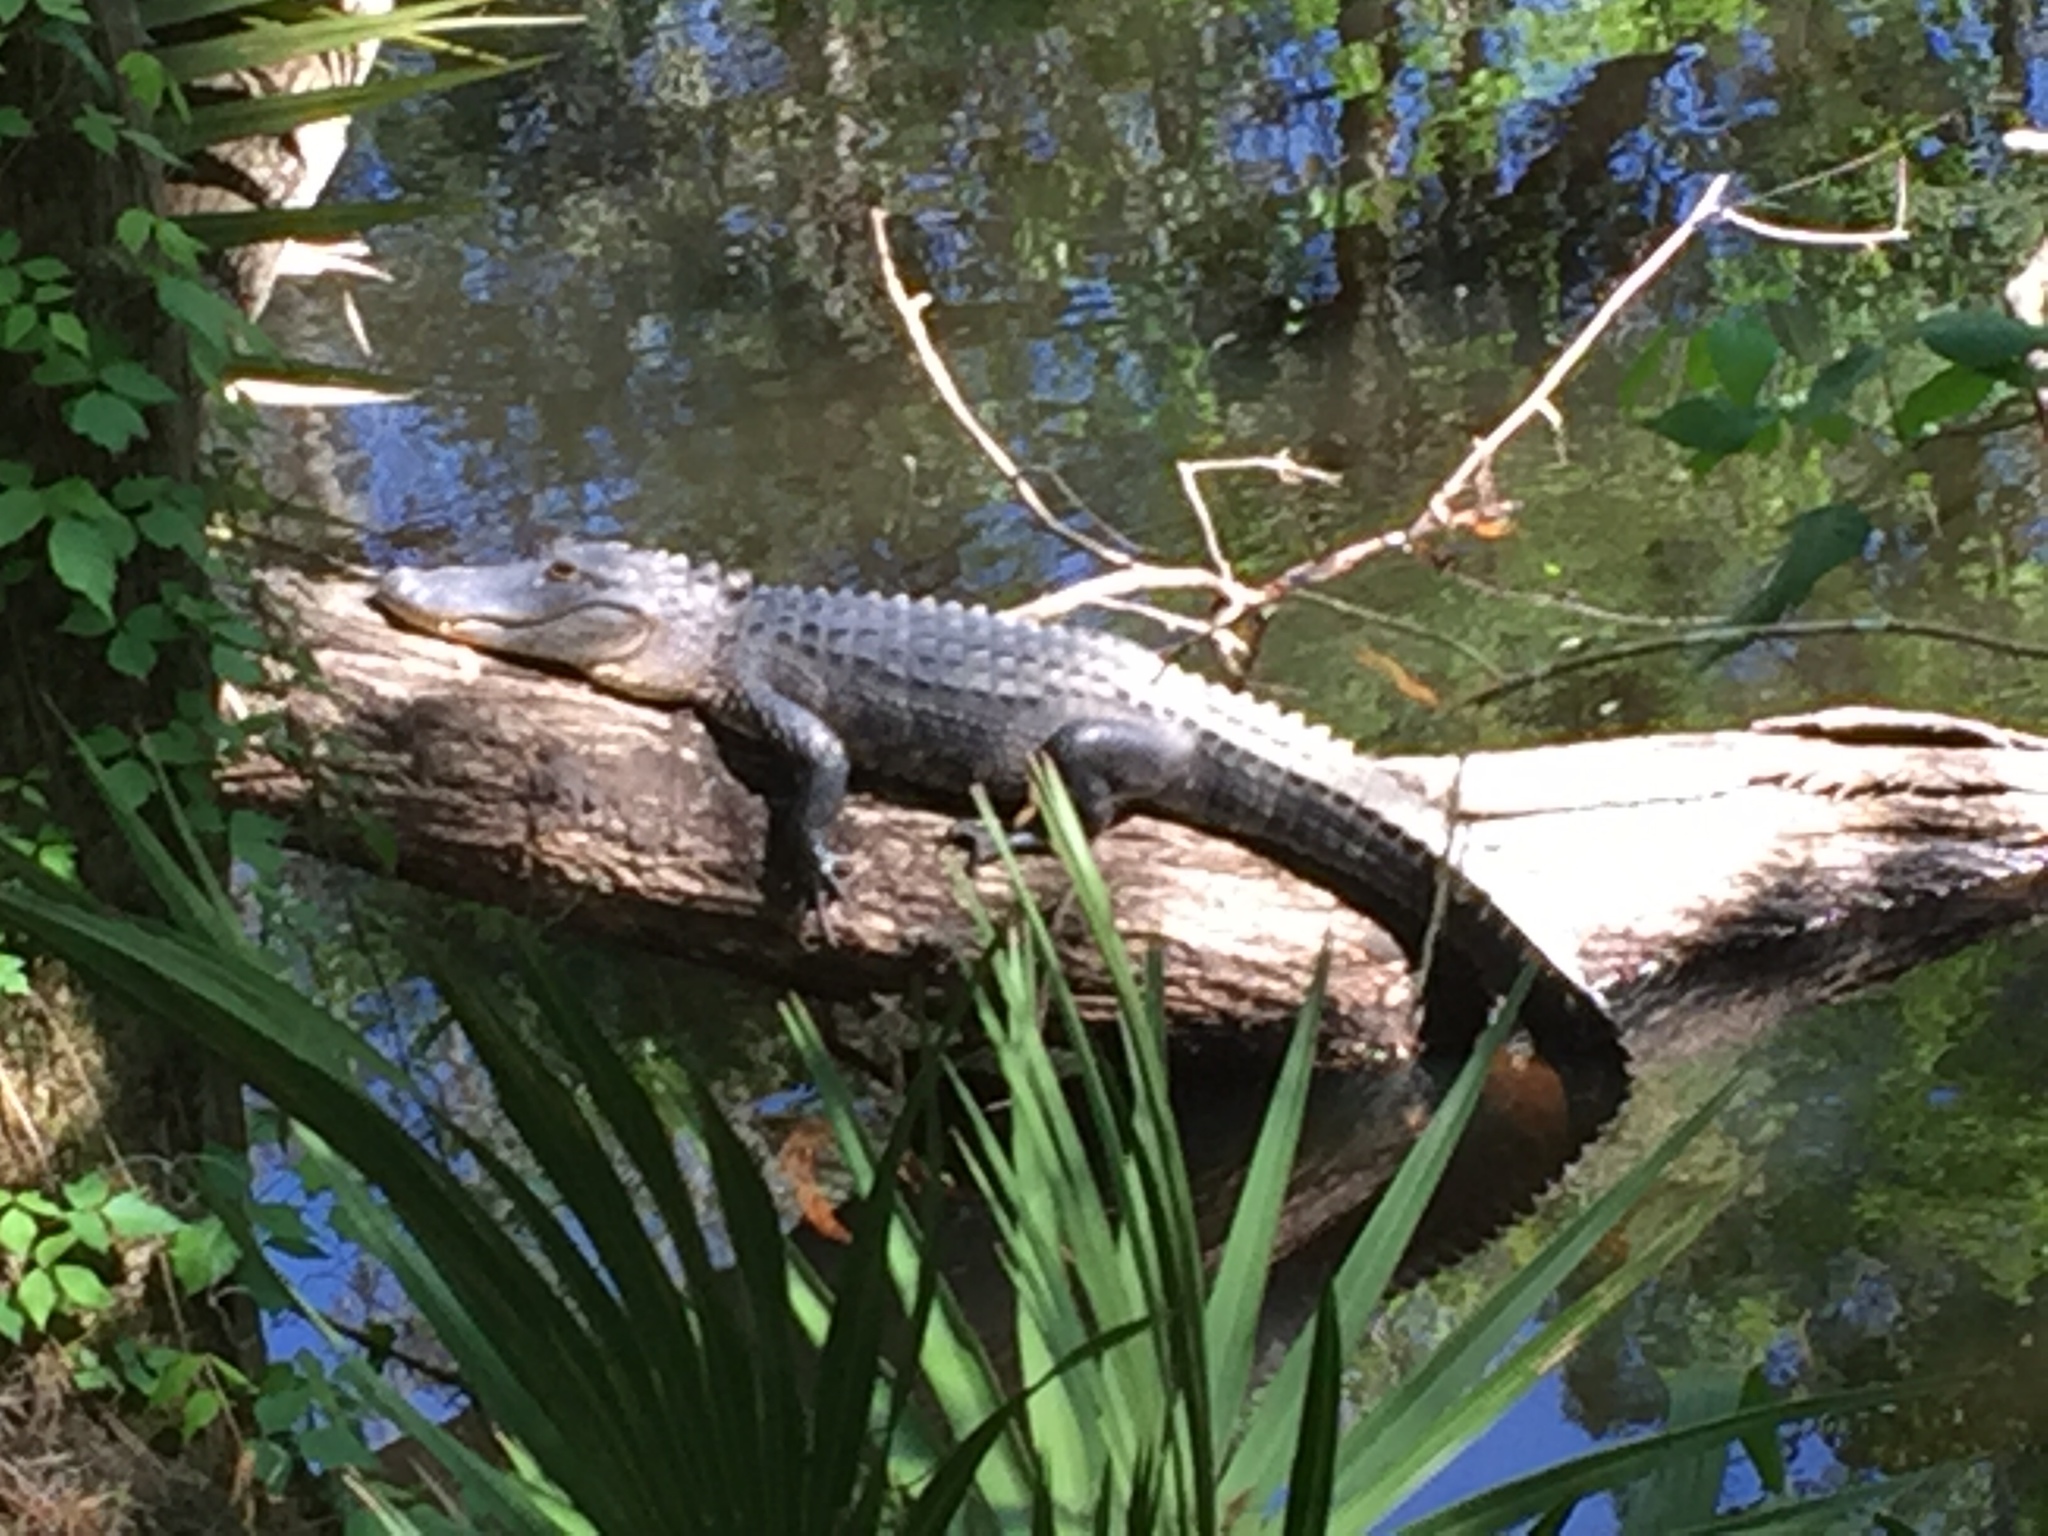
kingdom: Animalia
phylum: Chordata
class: Crocodylia
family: Alligatoridae
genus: Alligator
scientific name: Alligator mississippiensis
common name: American alligator
